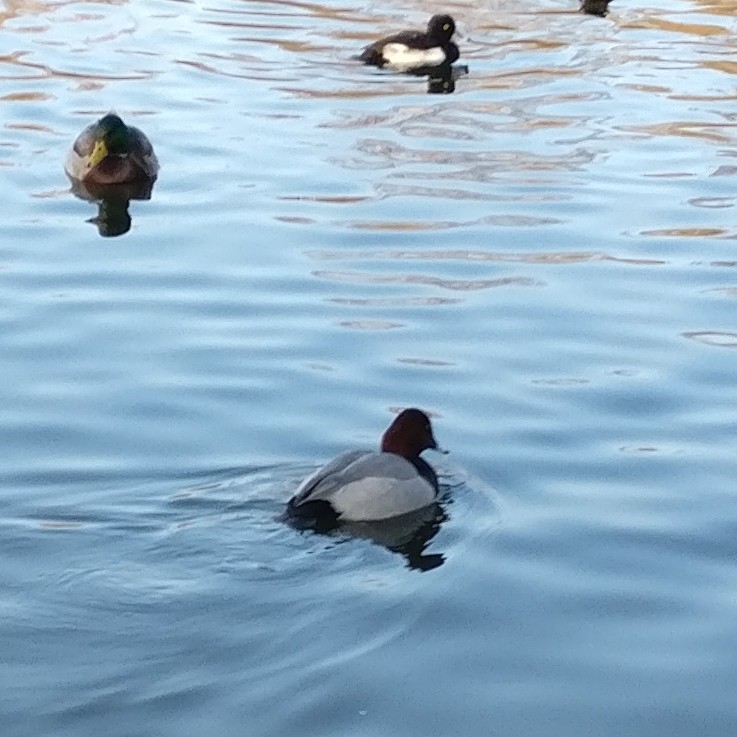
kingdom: Animalia
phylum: Chordata
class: Aves
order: Anseriformes
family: Anatidae
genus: Aythya
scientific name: Aythya ferina
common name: Common pochard
